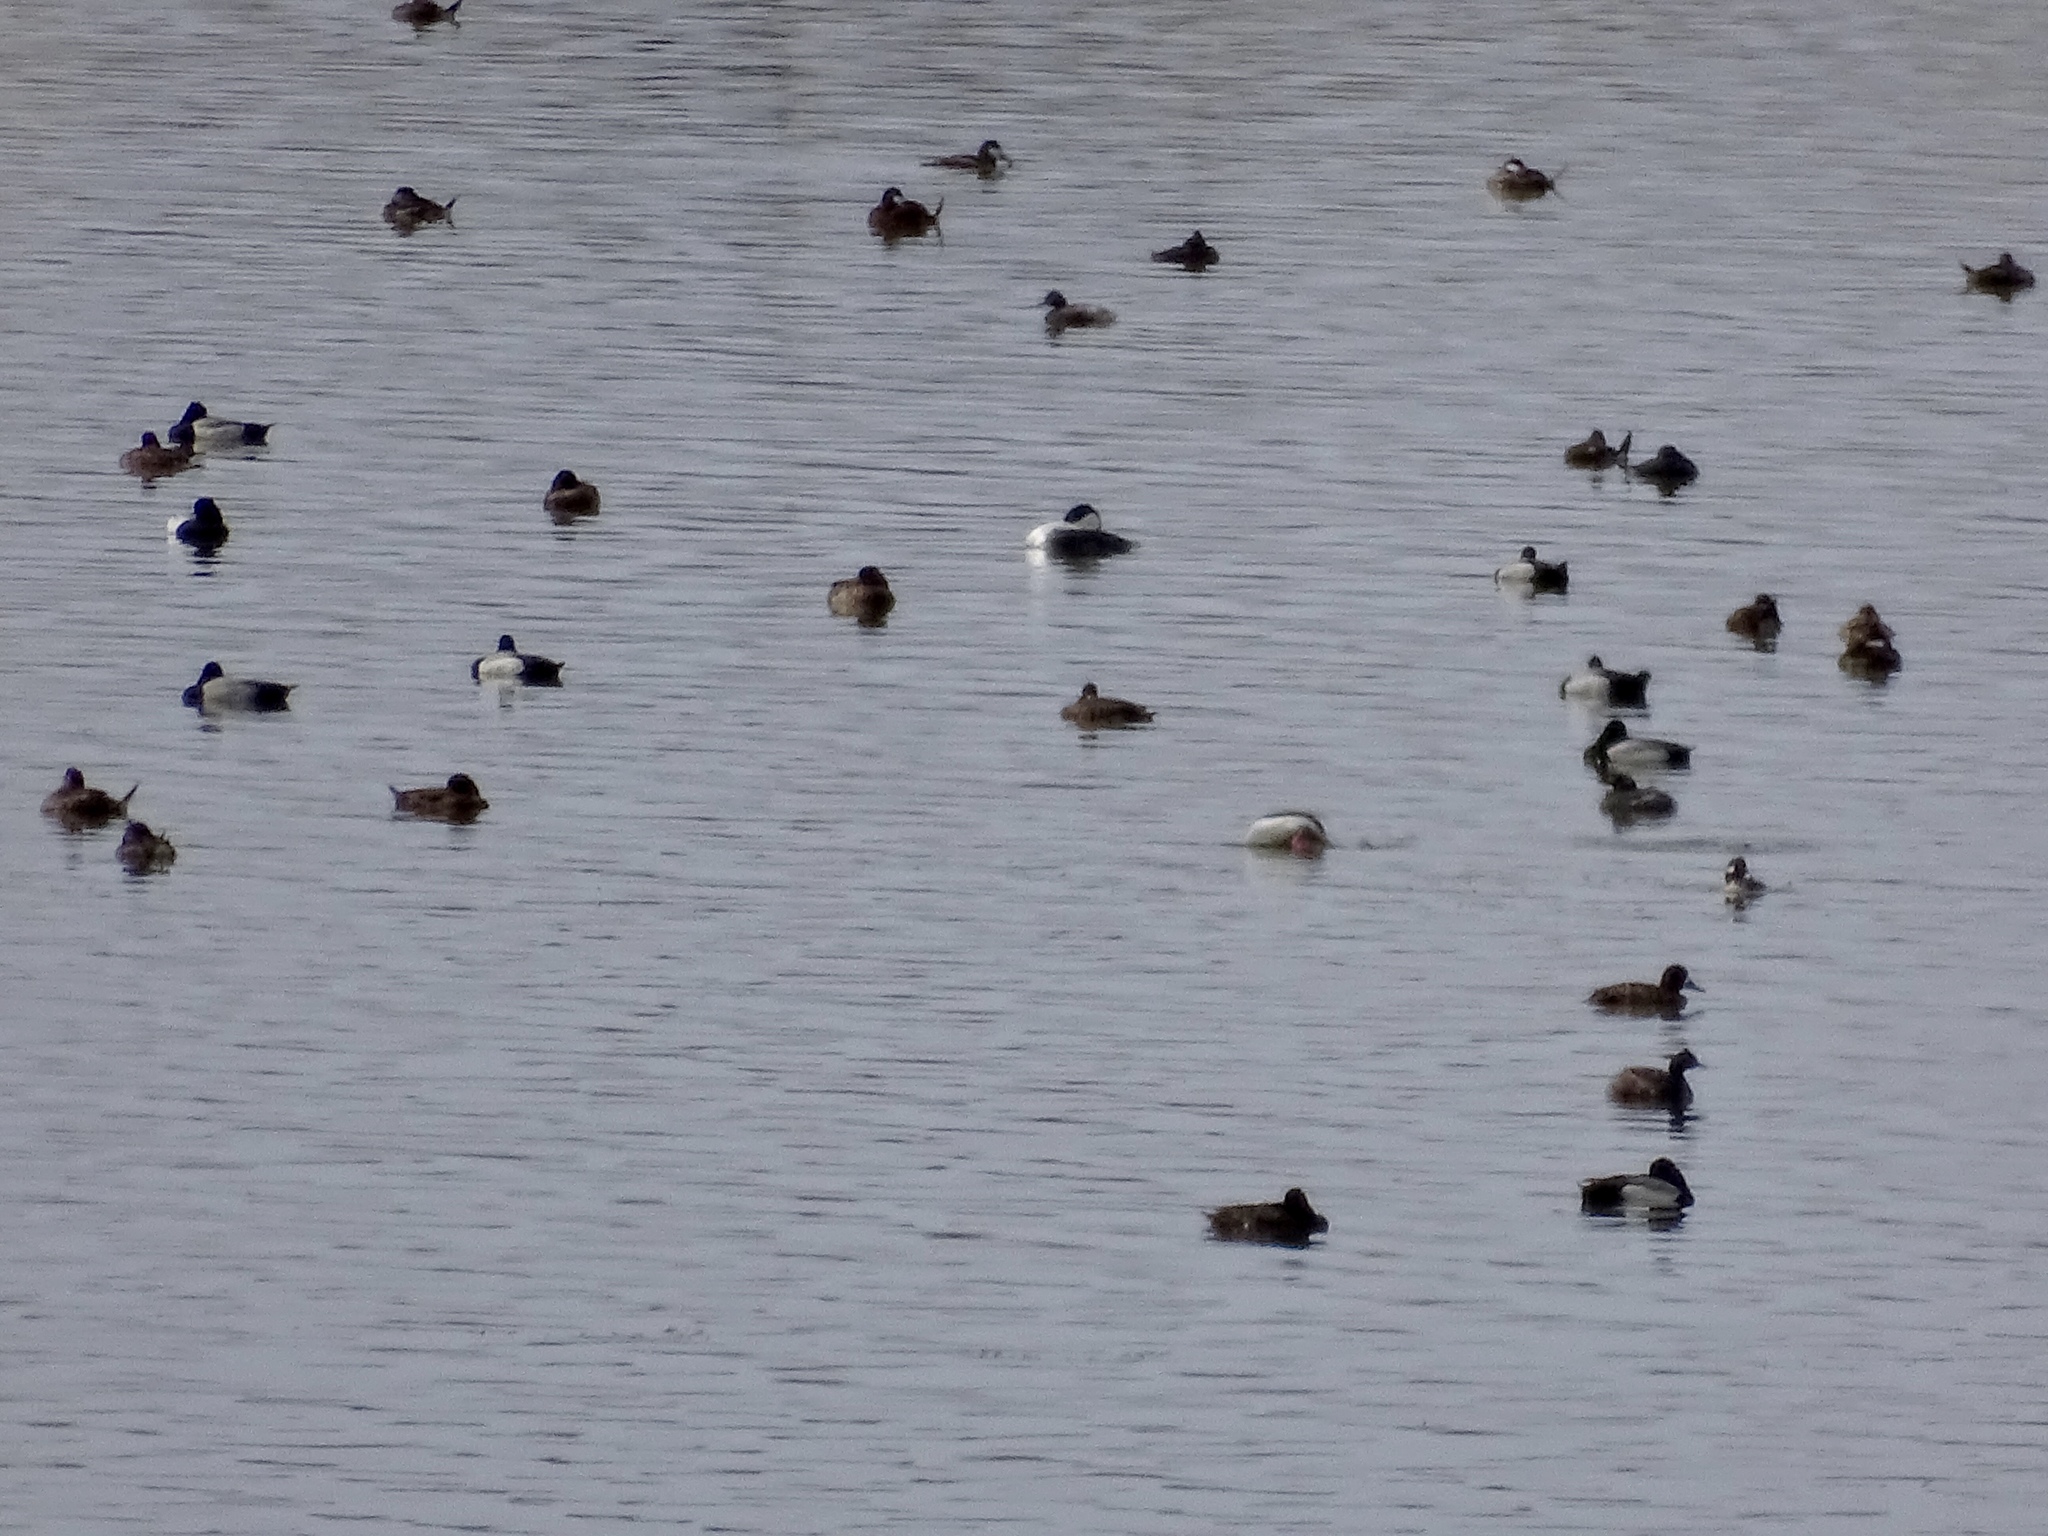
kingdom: Animalia
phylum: Chordata
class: Aves
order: Anseriformes
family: Anatidae
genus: Bucephala
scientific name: Bucephala albeola
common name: Bufflehead
